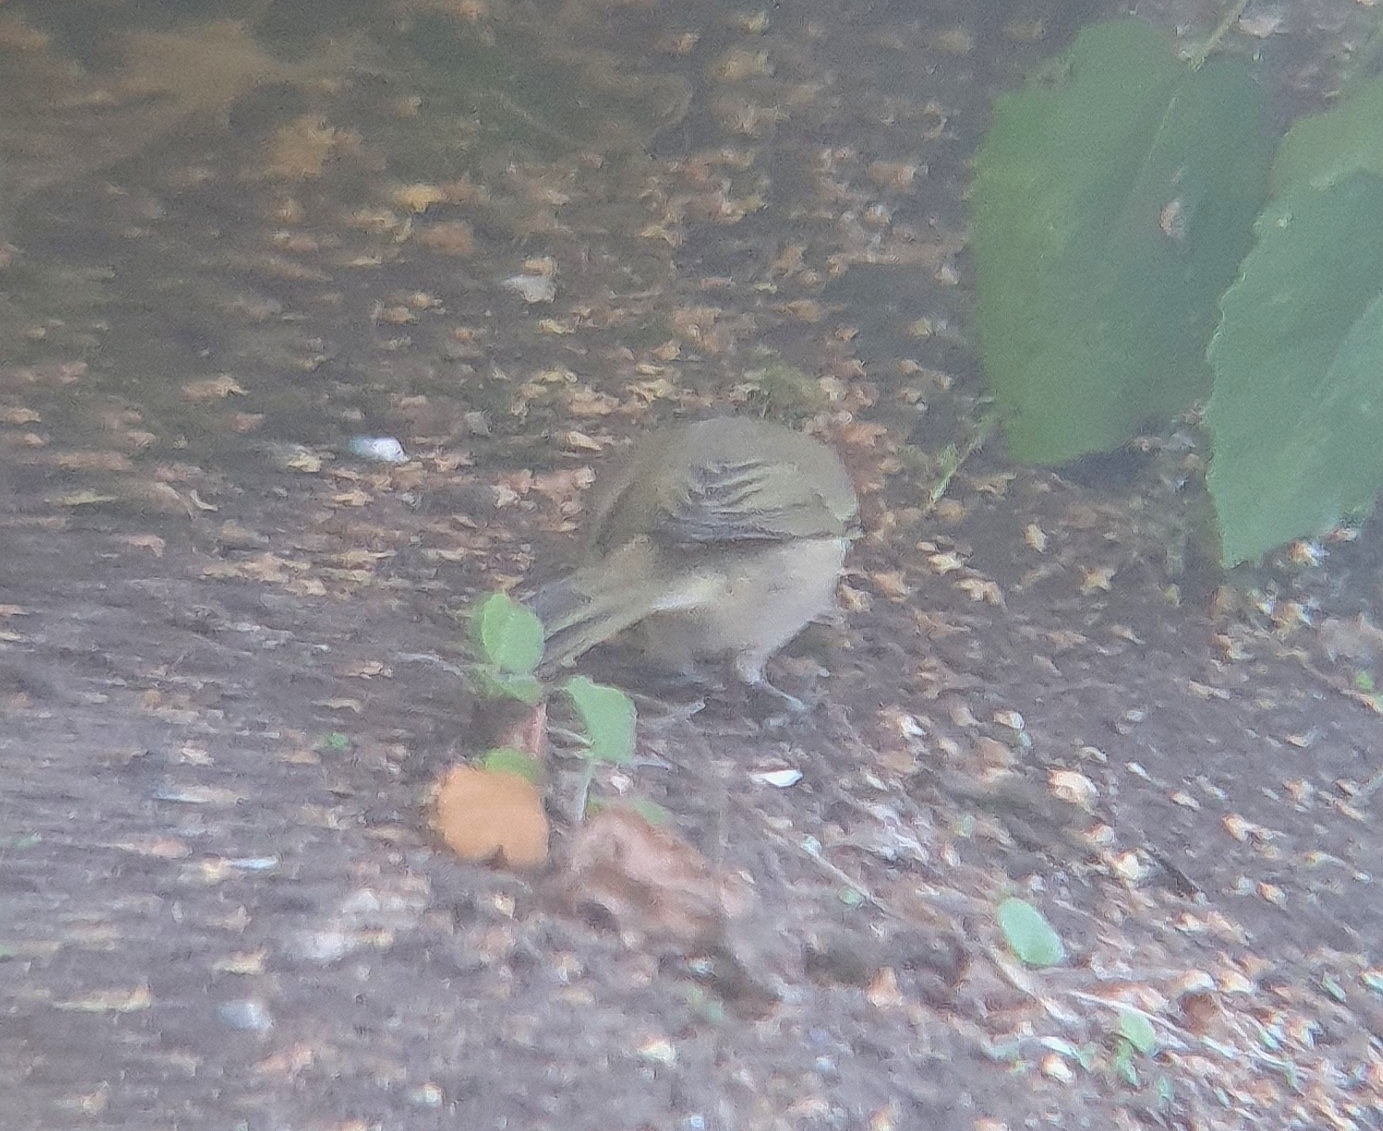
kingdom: Animalia
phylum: Chordata
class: Aves
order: Passeriformes
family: Phylloscopidae
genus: Phylloscopus
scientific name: Phylloscopus collybita
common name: Common chiffchaff
